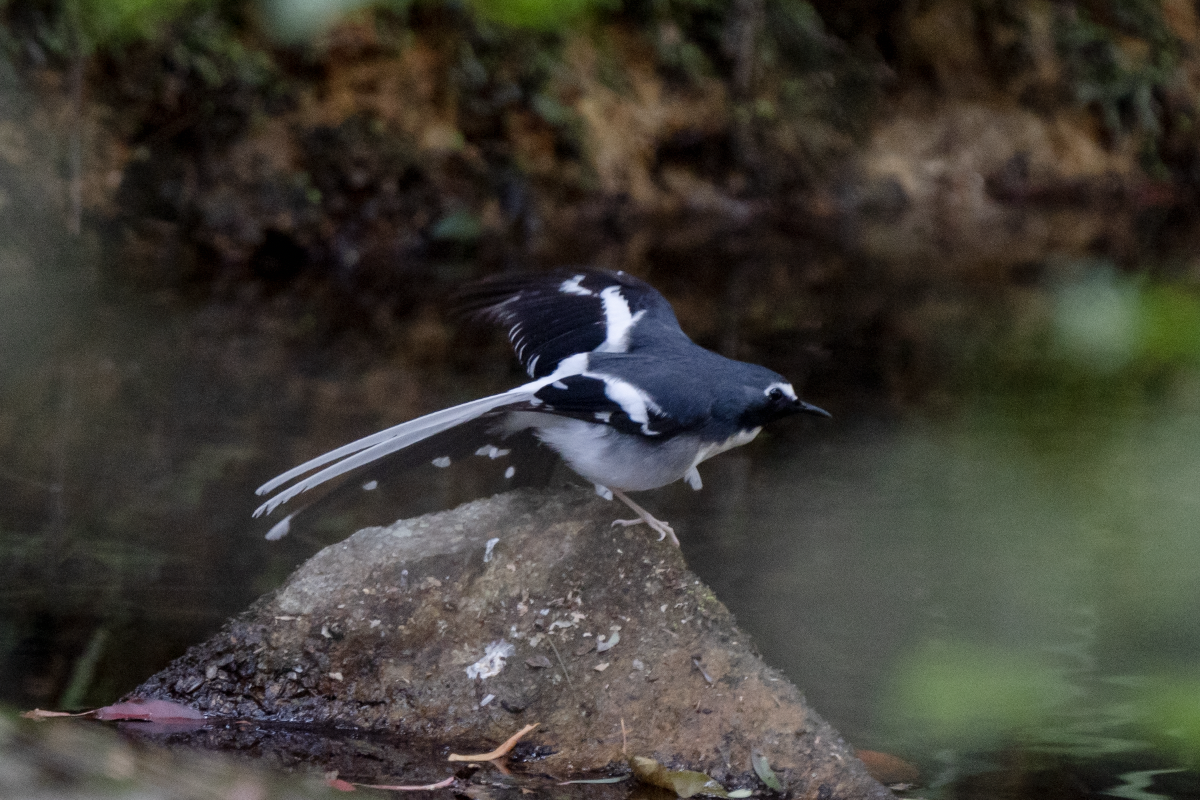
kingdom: Animalia
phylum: Chordata
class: Aves
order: Passeriformes
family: Muscicapidae
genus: Enicurus
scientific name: Enicurus schistaceus
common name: Slaty-backed forktail
